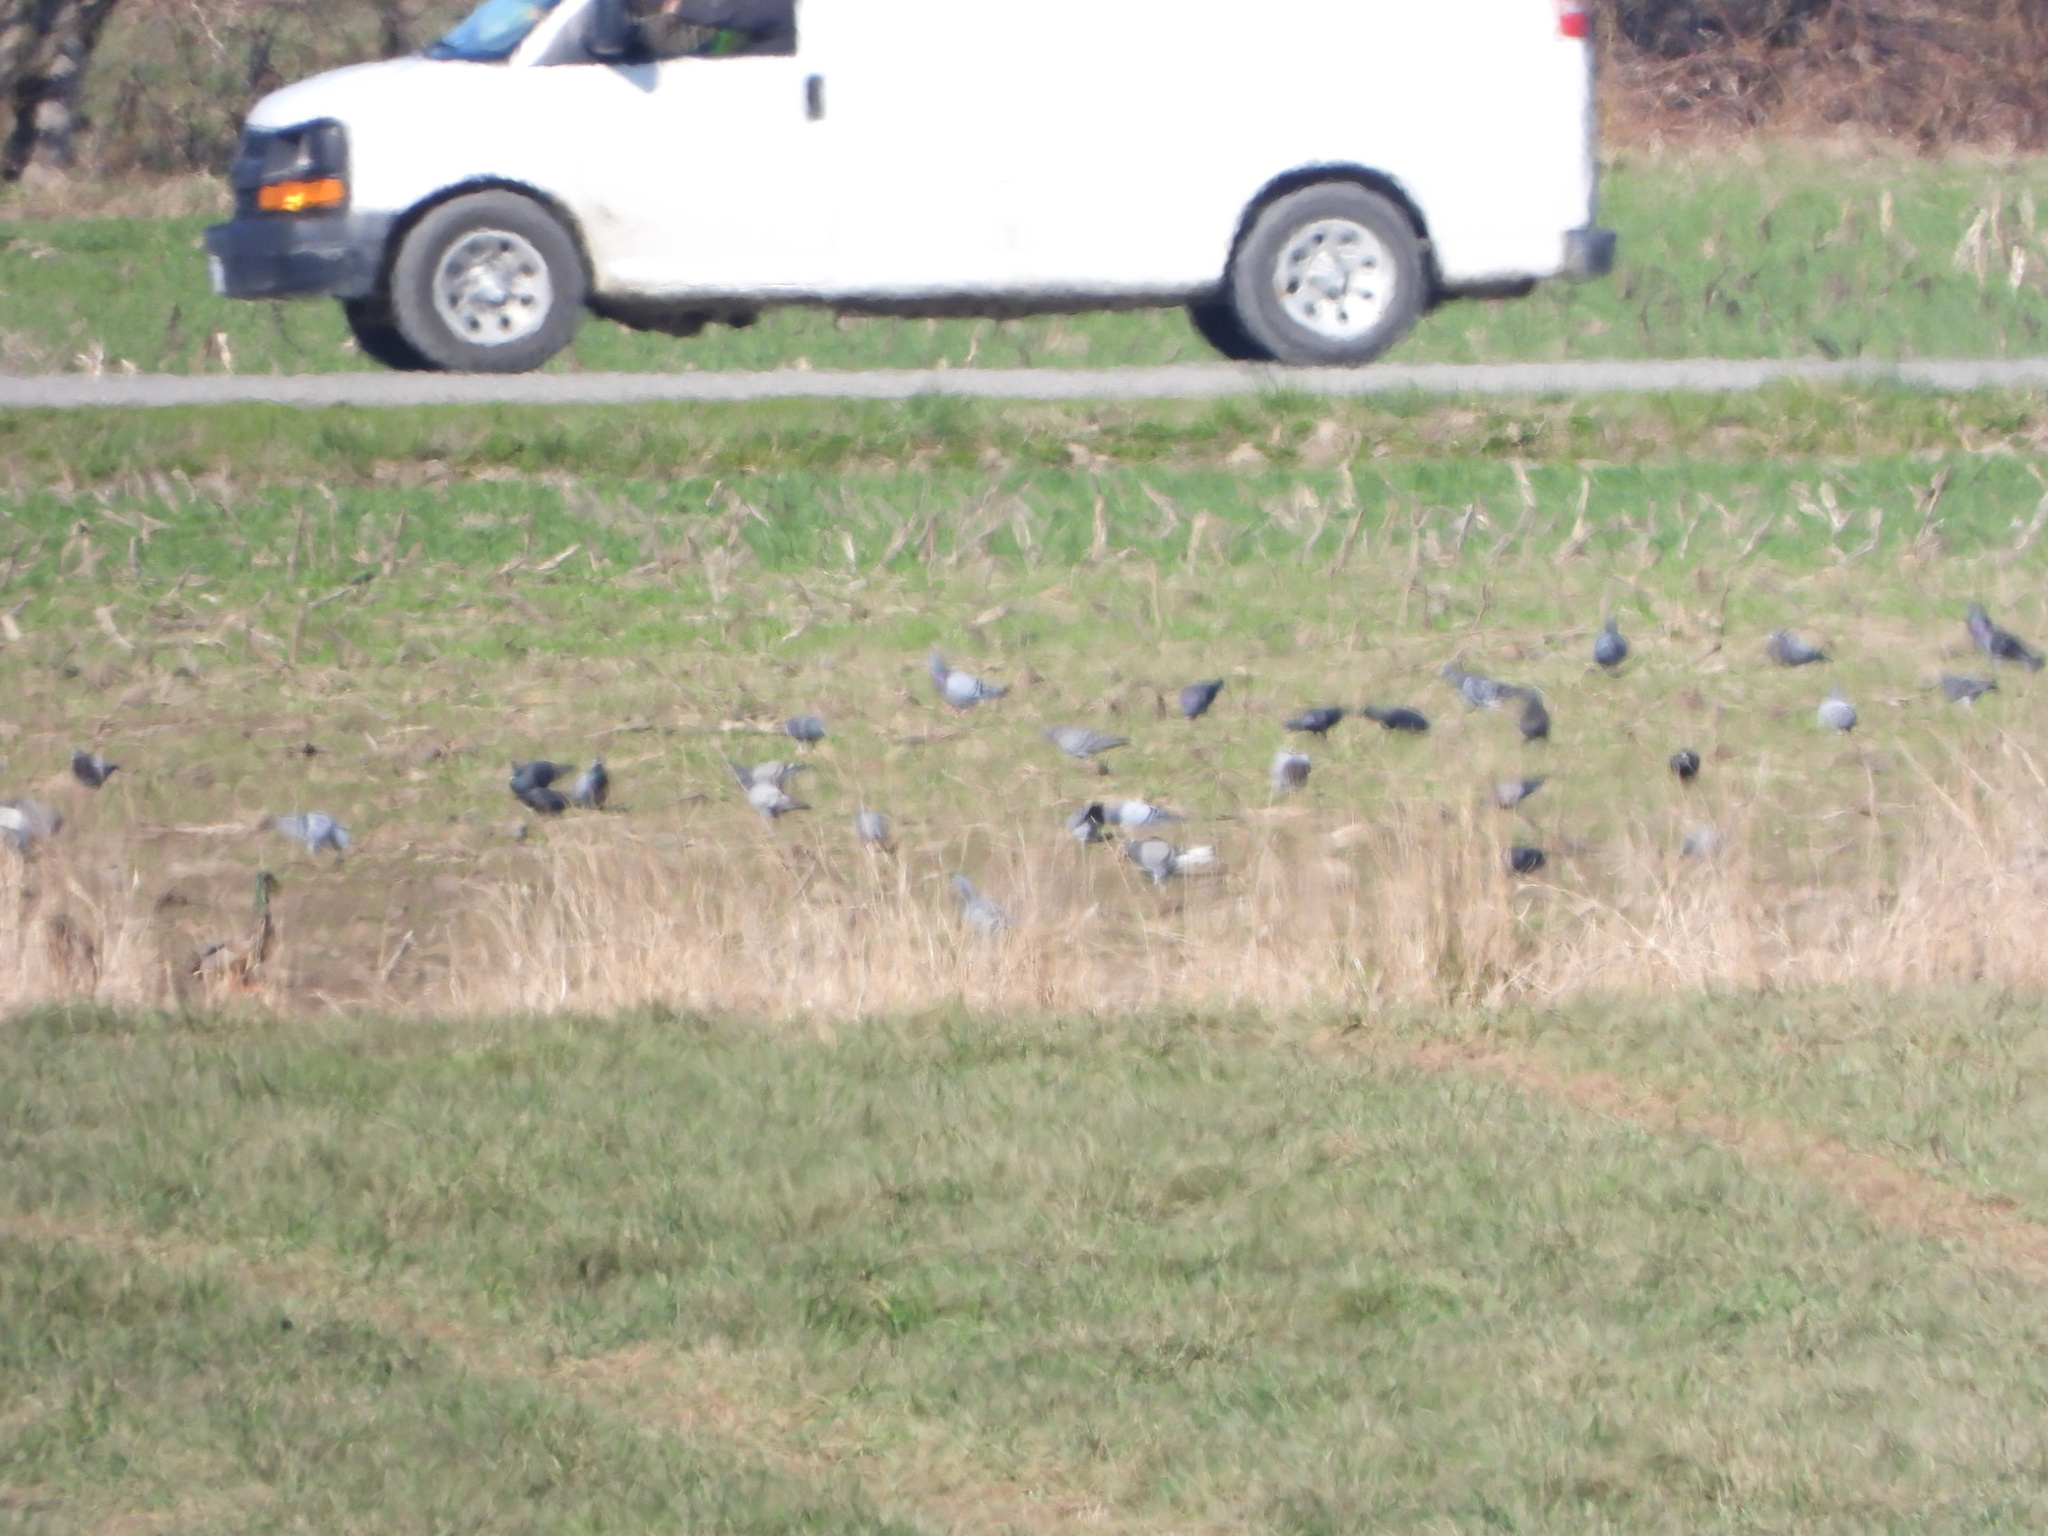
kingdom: Animalia
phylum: Chordata
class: Aves
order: Columbiformes
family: Columbidae
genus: Columba
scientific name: Columba livia
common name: Rock pigeon
